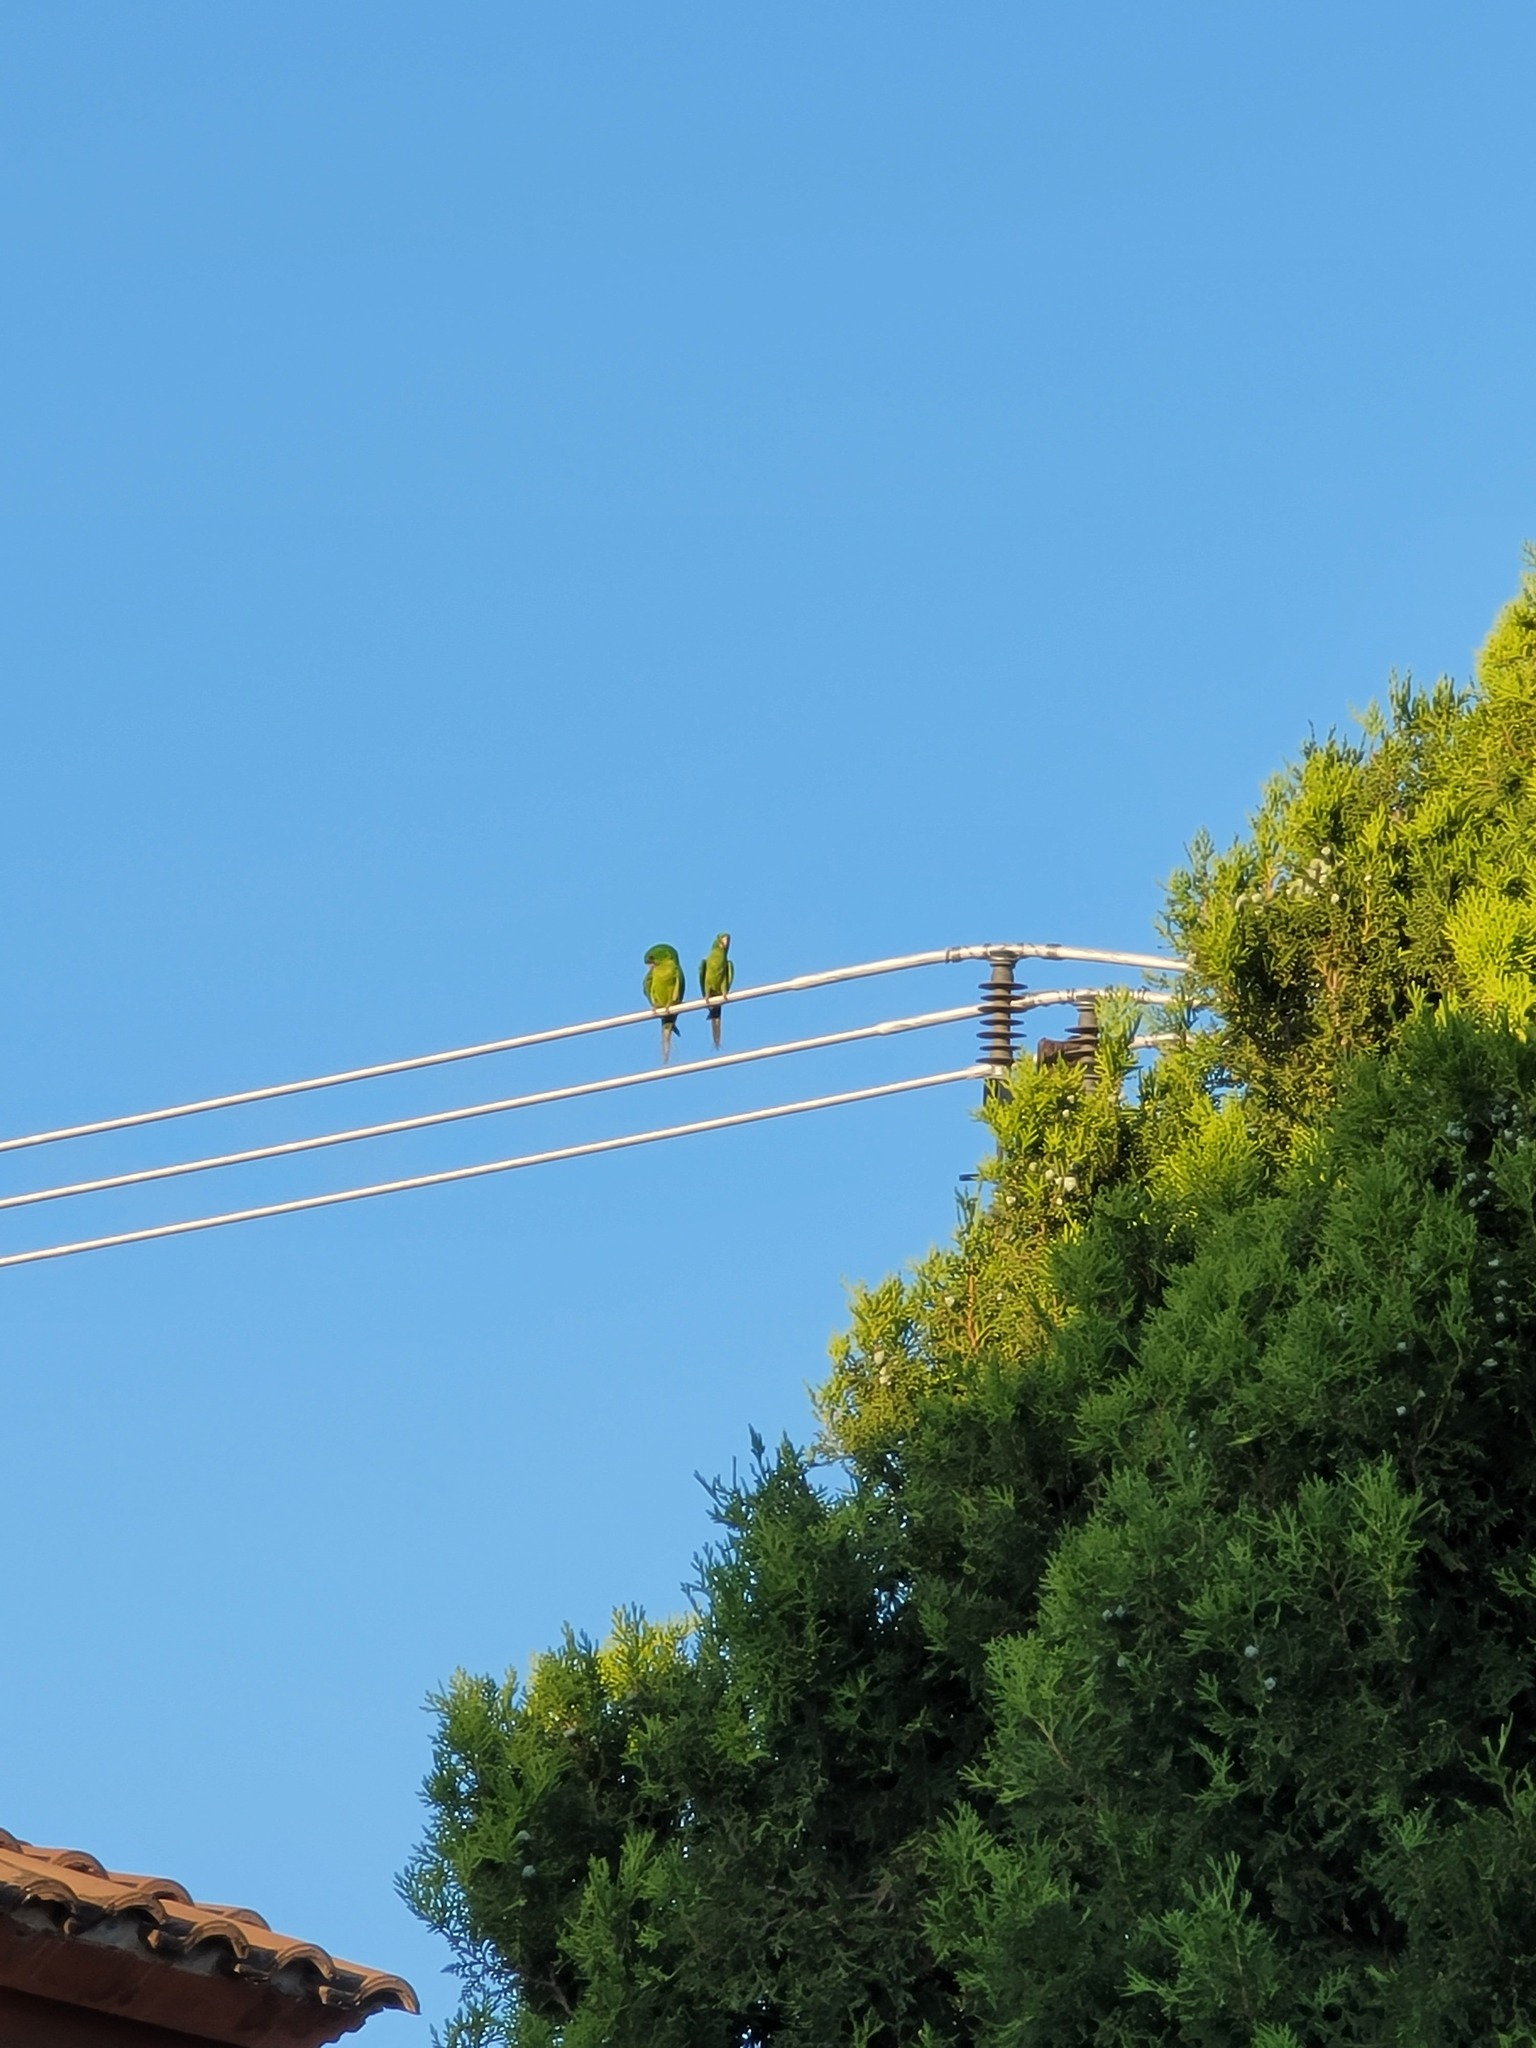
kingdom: Animalia
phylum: Chordata
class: Aves
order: Psittaciformes
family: Psittacidae
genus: Aratinga
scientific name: Aratinga holochlora
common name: Green parakeet
